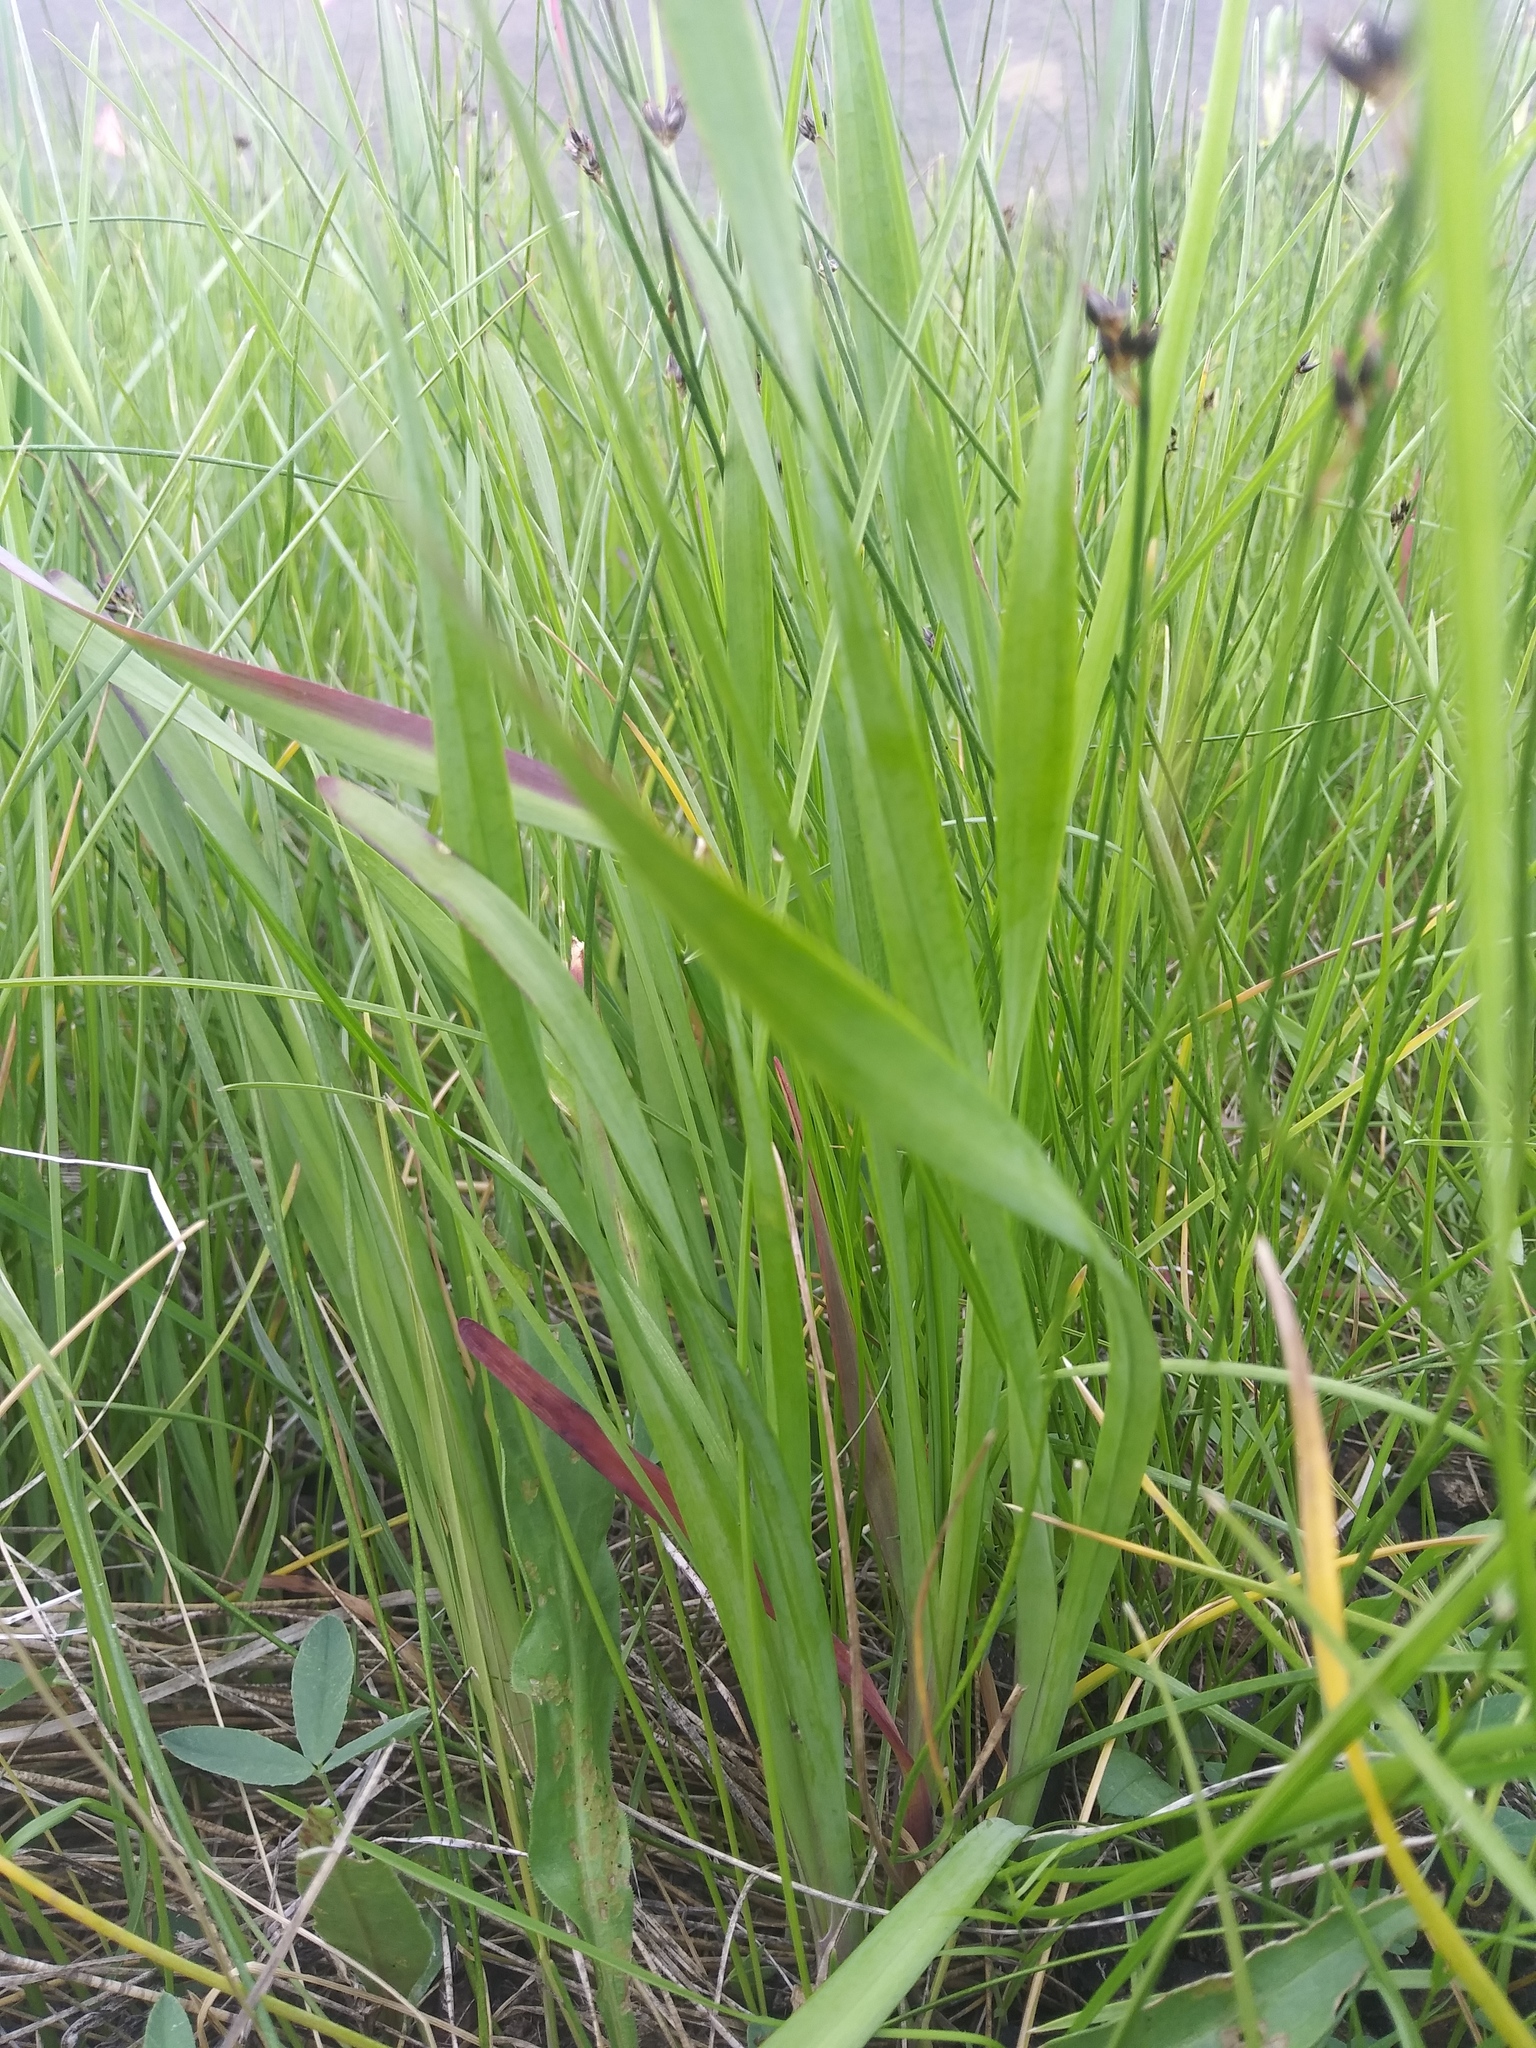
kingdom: Plantae
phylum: Tracheophyta
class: Liliopsida
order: Asparagales
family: Amaryllidaceae
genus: Allium
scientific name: Allium brevistylum
